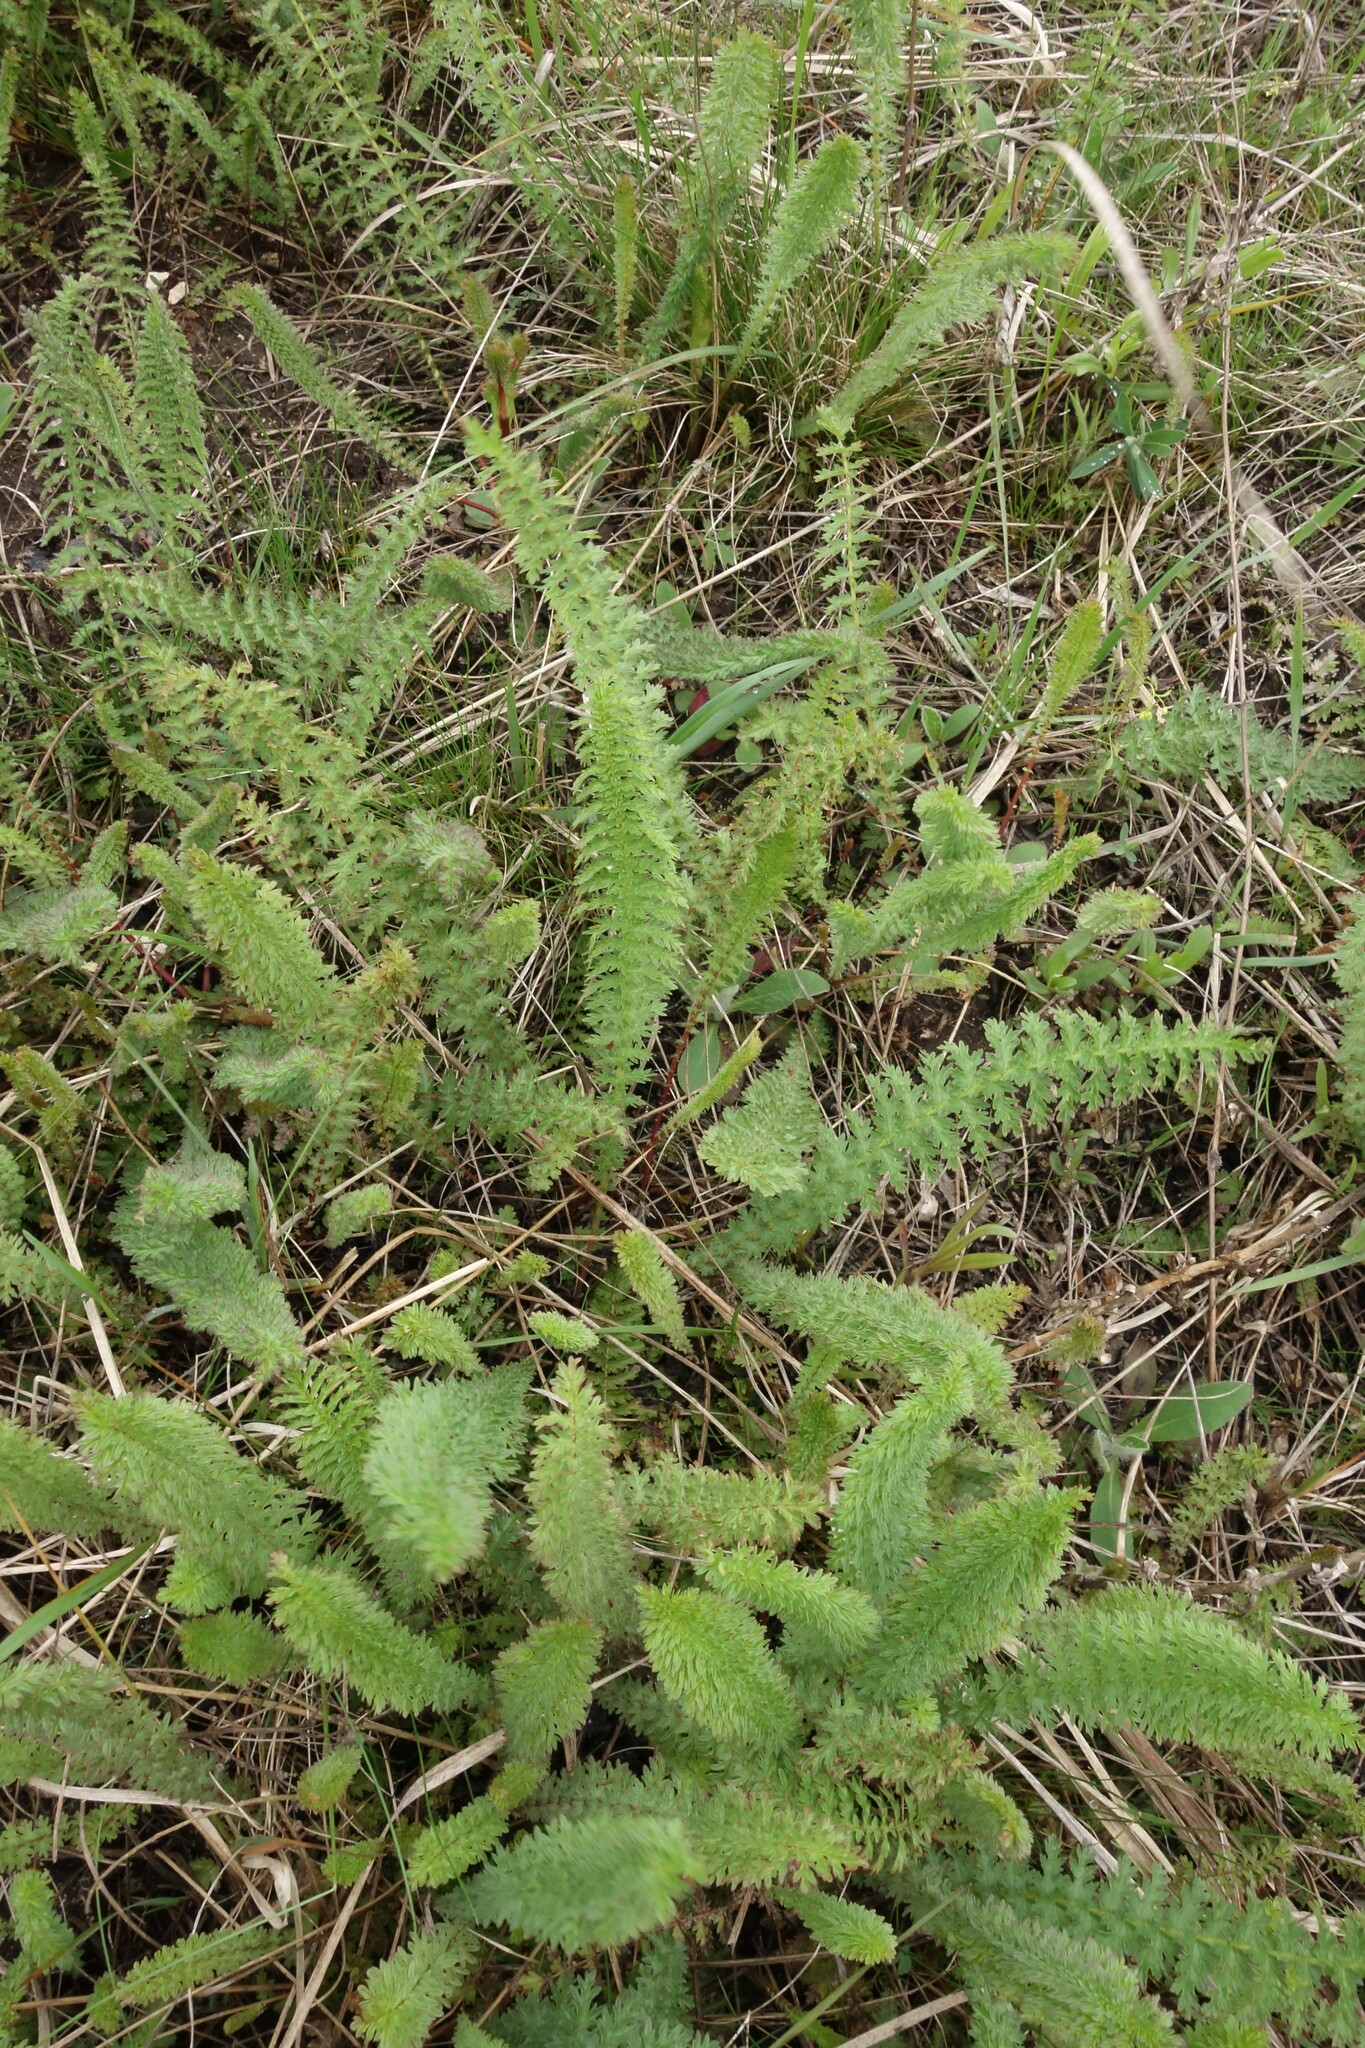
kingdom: Plantae
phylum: Tracheophyta
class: Magnoliopsida
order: Rosales
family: Rosaceae
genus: Filipendula
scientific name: Filipendula vulgaris
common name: Dropwort
